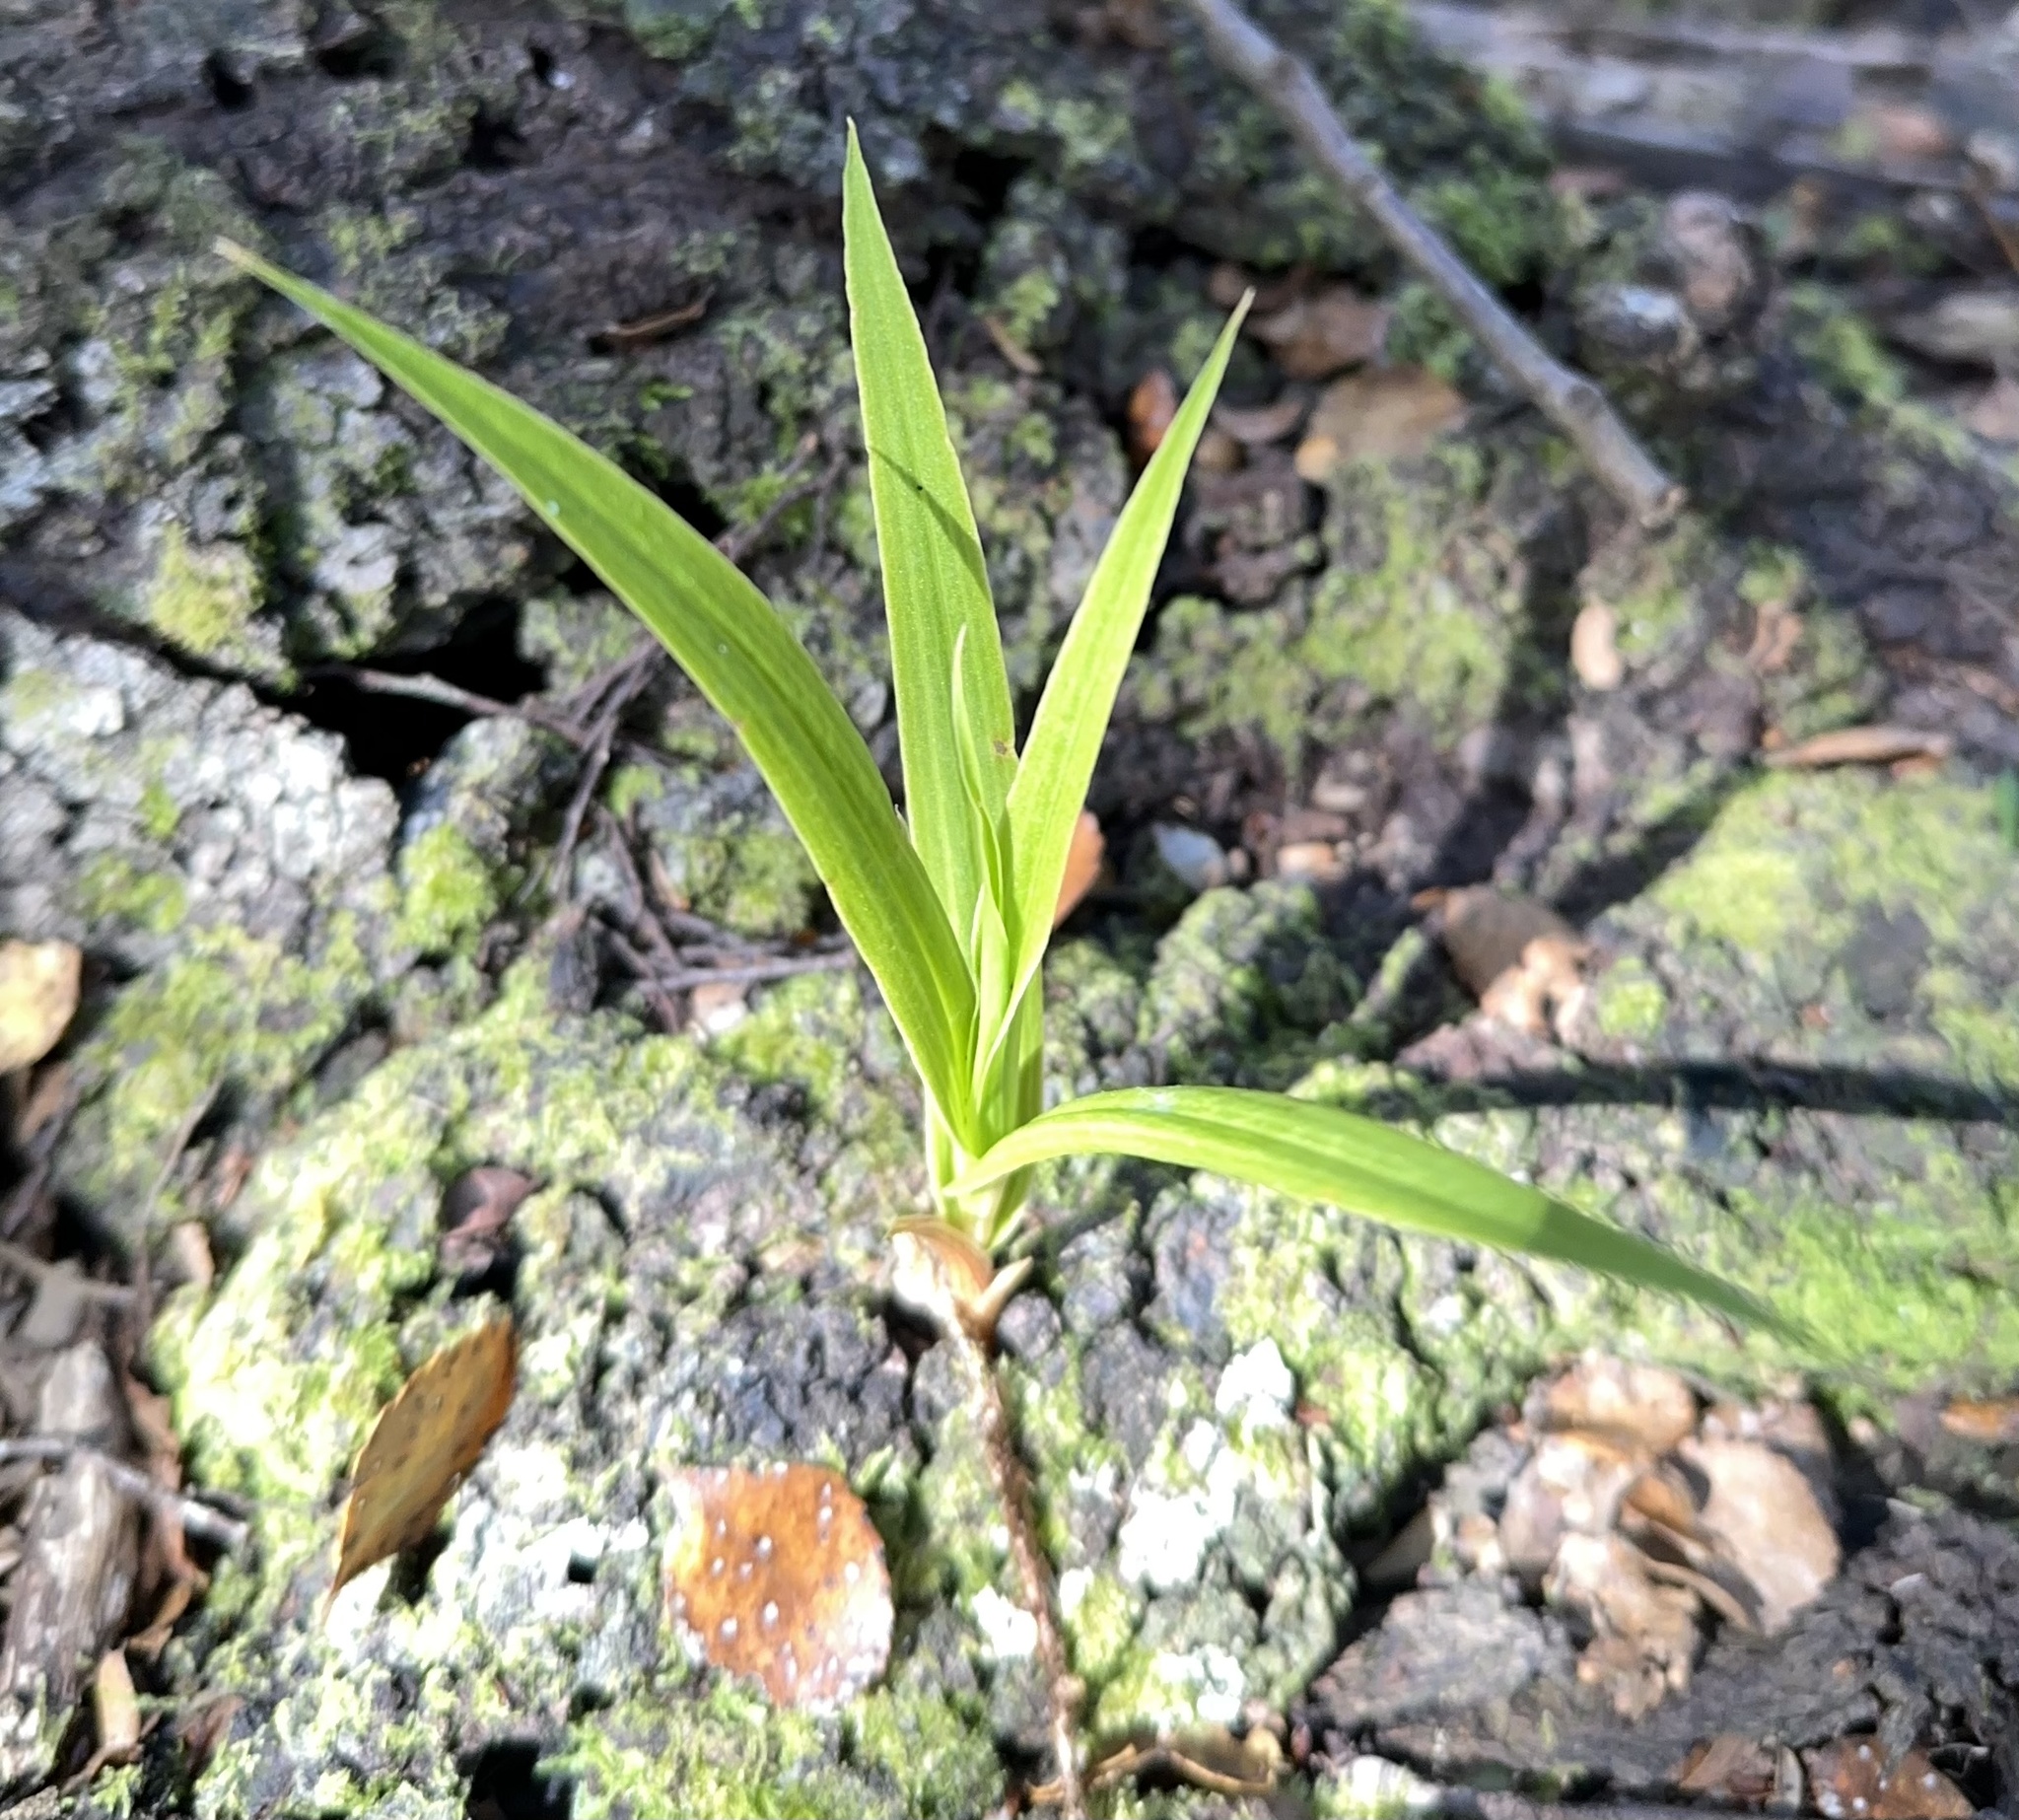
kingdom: Plantae
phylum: Tracheophyta
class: Liliopsida
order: Asparagales
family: Orchidaceae
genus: Pterostylis
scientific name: Pterostylis cardiostigma
